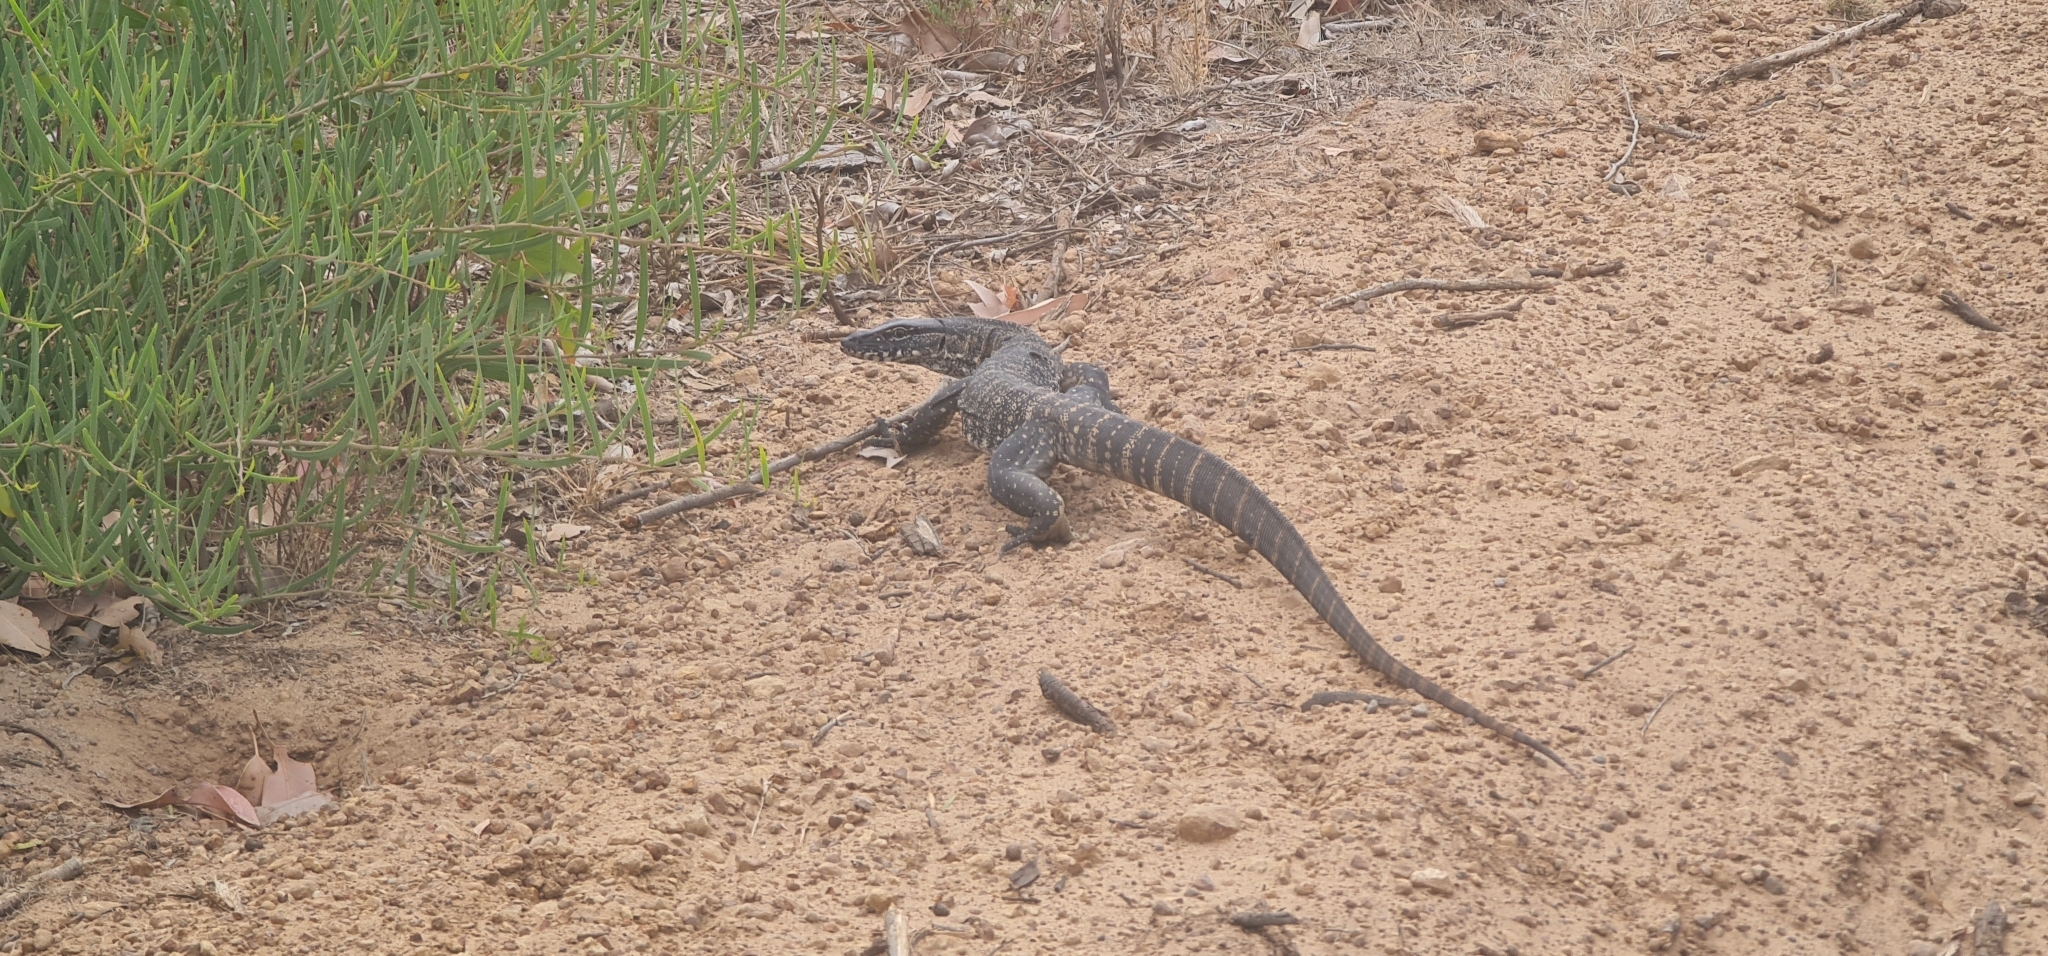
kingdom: Animalia
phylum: Chordata
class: Squamata
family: Varanidae
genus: Varanus
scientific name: Varanus rosenbergi
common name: Heath monitor
